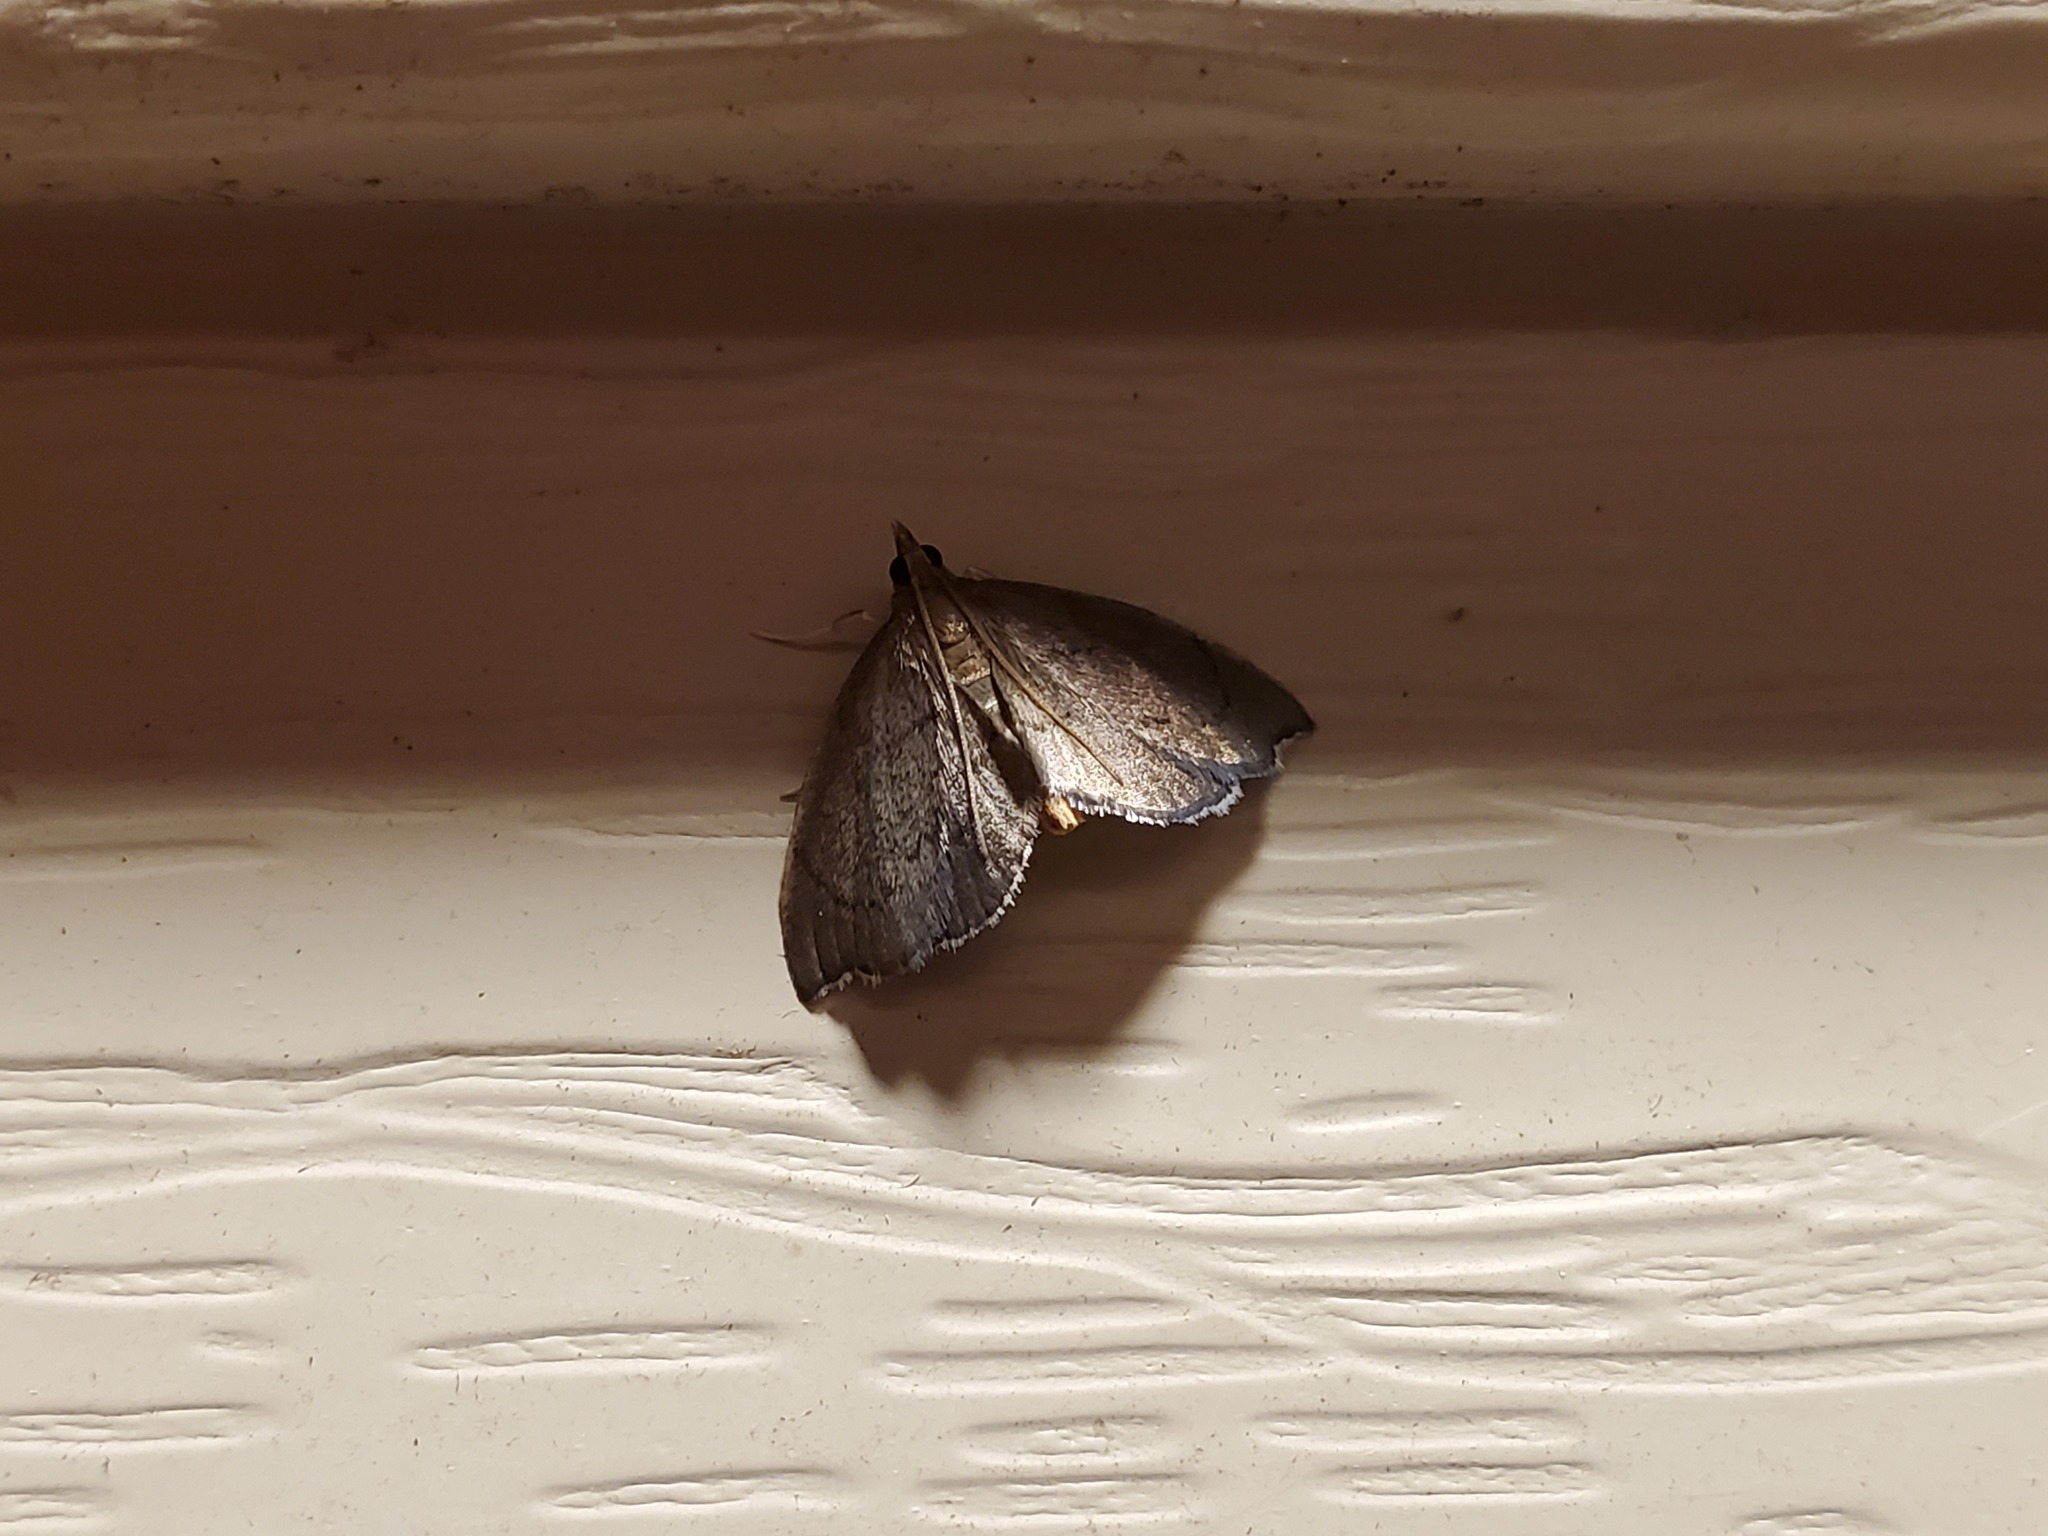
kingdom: Animalia
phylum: Arthropoda
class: Insecta
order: Lepidoptera
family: Crambidae
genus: Perispasta
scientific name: Perispasta caeculalis
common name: Titian peale's moth
